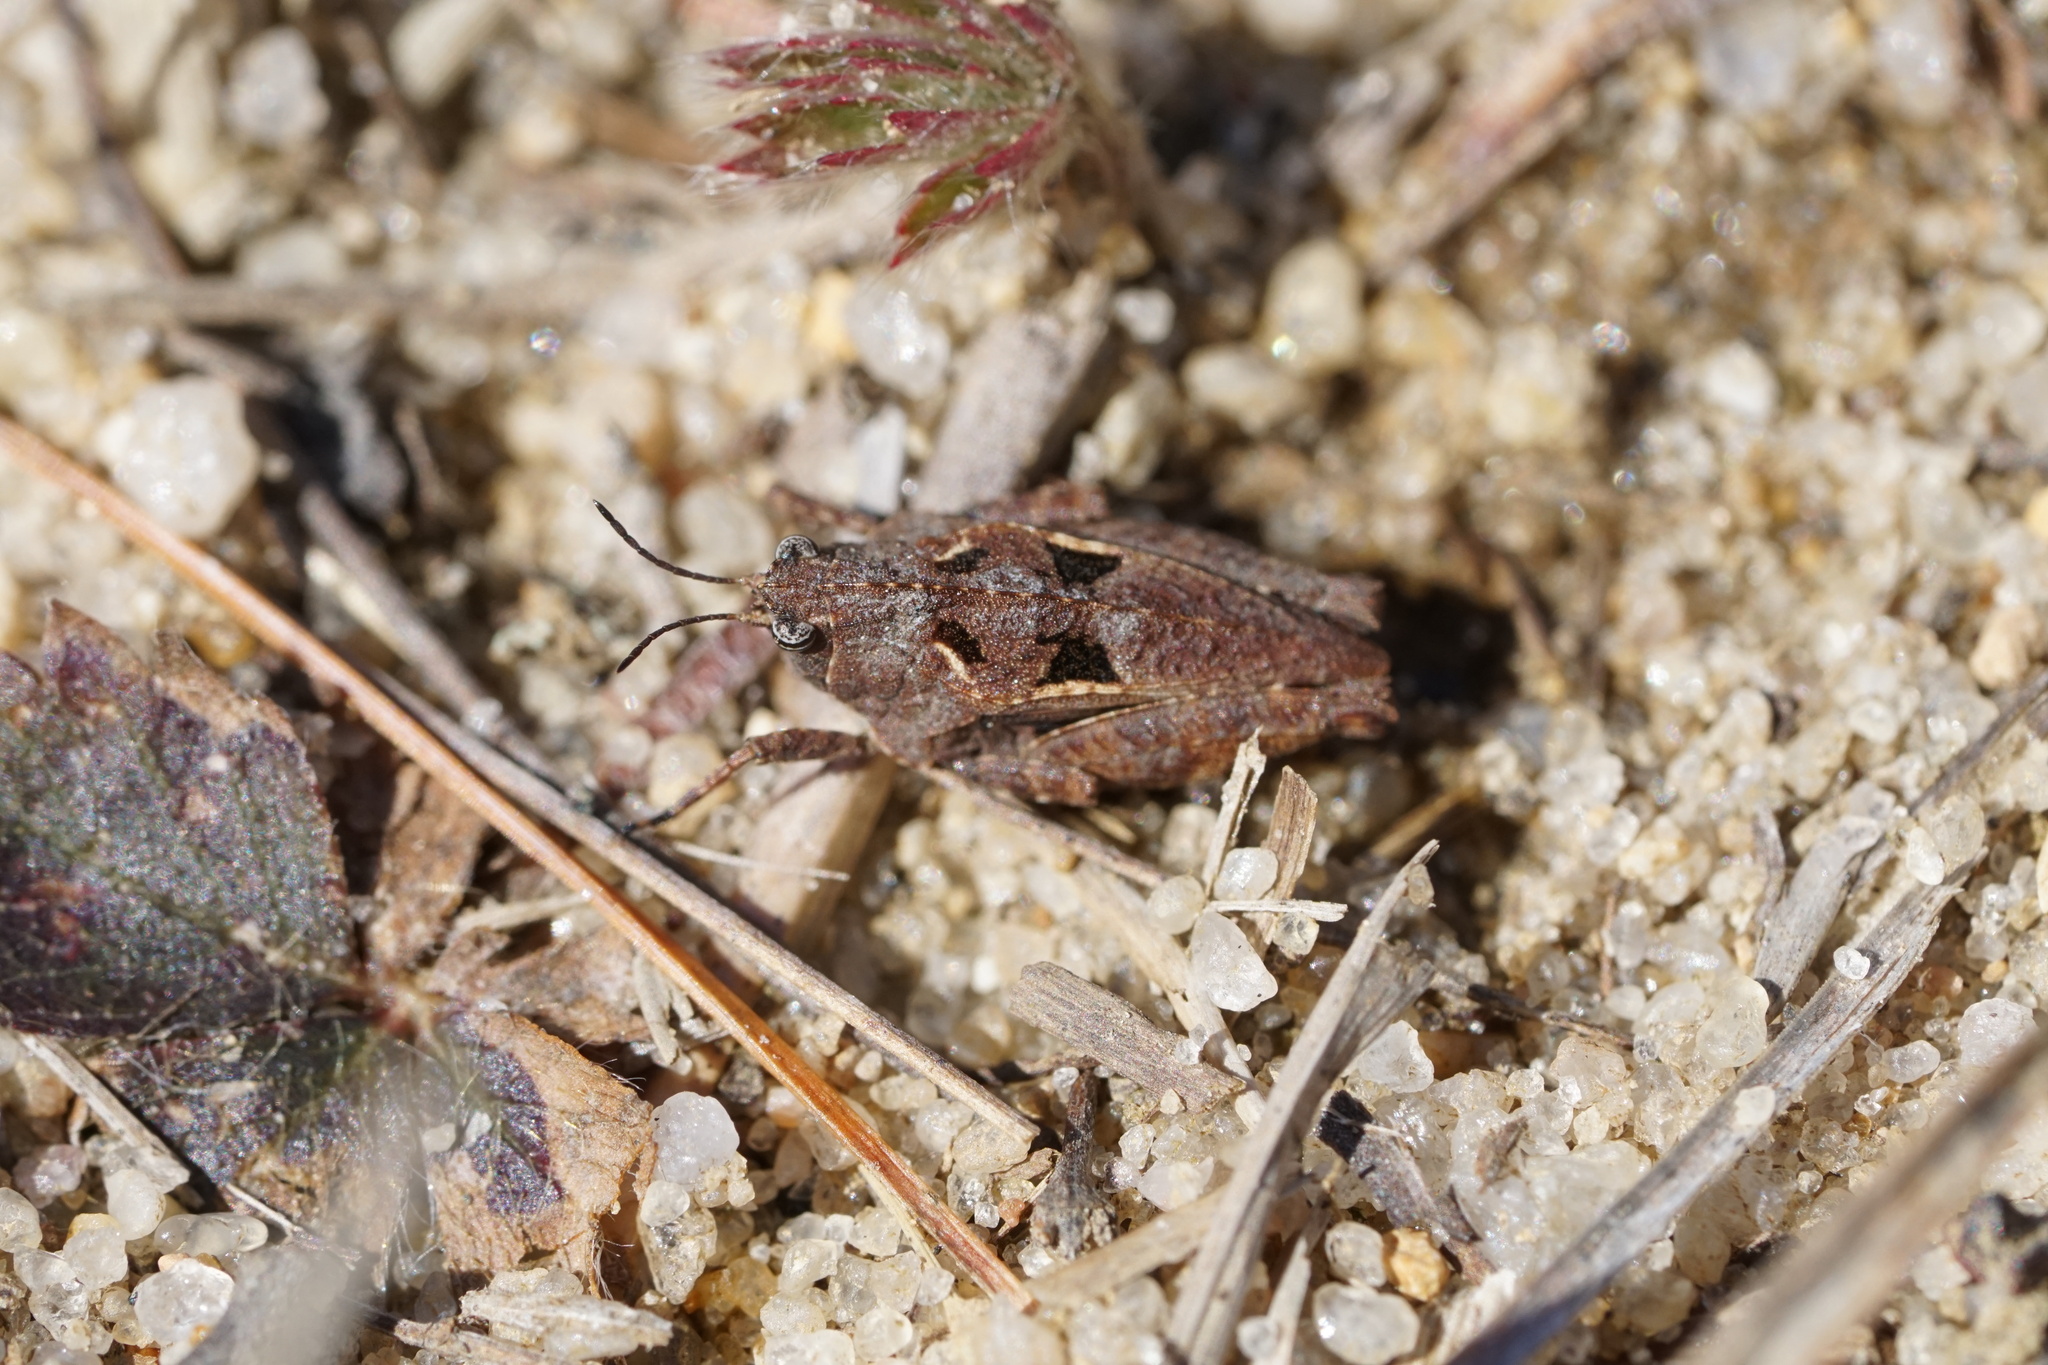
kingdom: Animalia
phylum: Arthropoda
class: Insecta
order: Orthoptera
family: Tetrigidae
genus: Nomotettix
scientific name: Nomotettix cristatus
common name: Crested grouse locust
